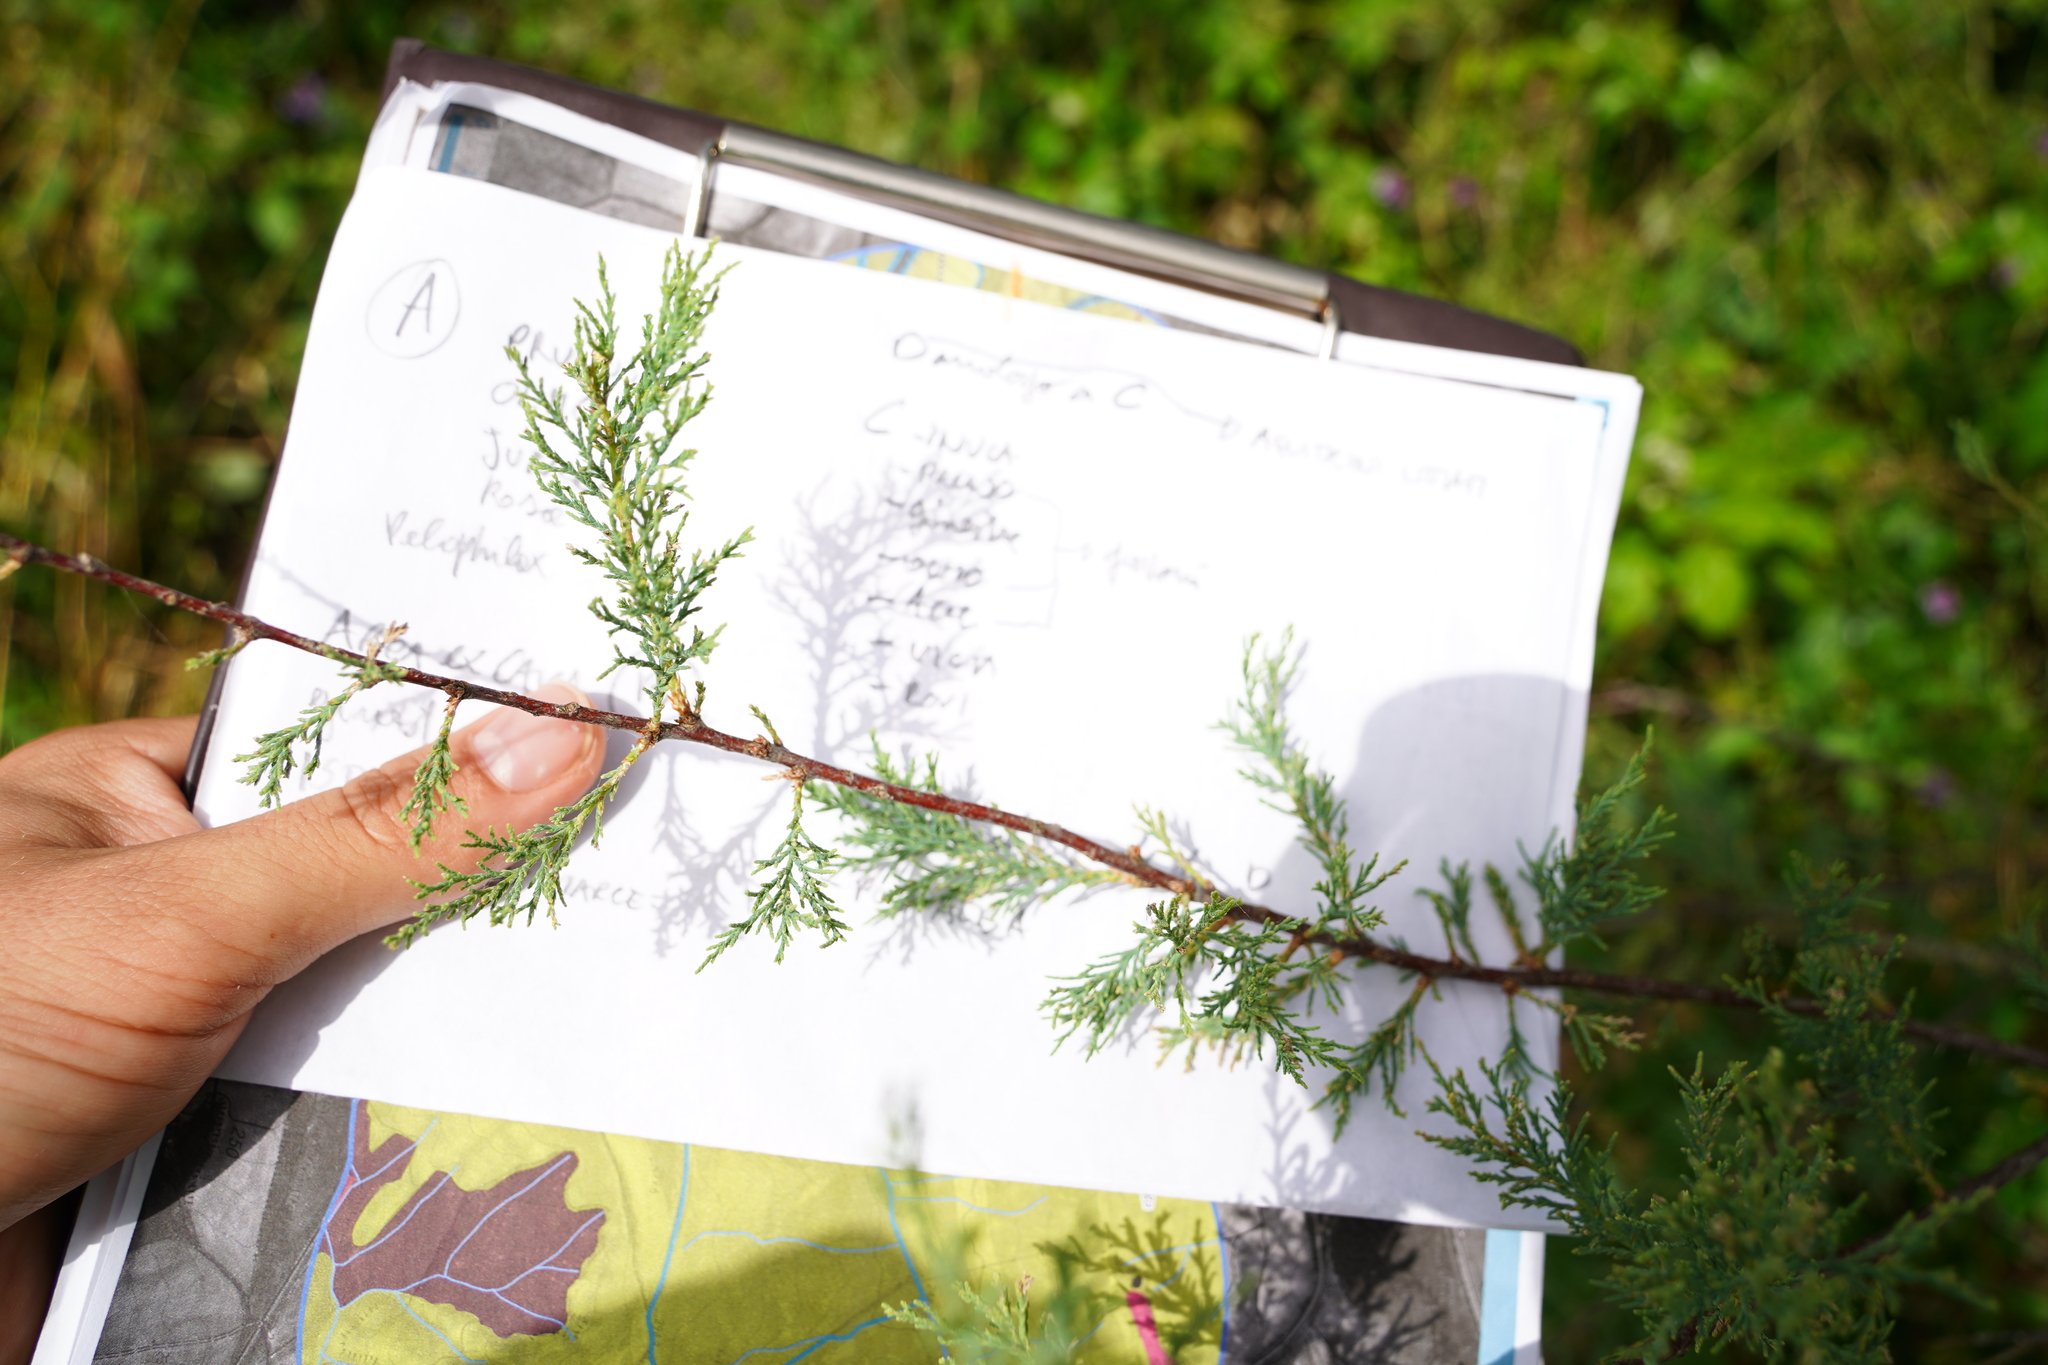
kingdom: Plantae
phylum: Tracheophyta
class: Magnoliopsida
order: Caryophyllales
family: Tamaricaceae
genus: Tamarix
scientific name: Tamarix gallica
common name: Tamarisk
